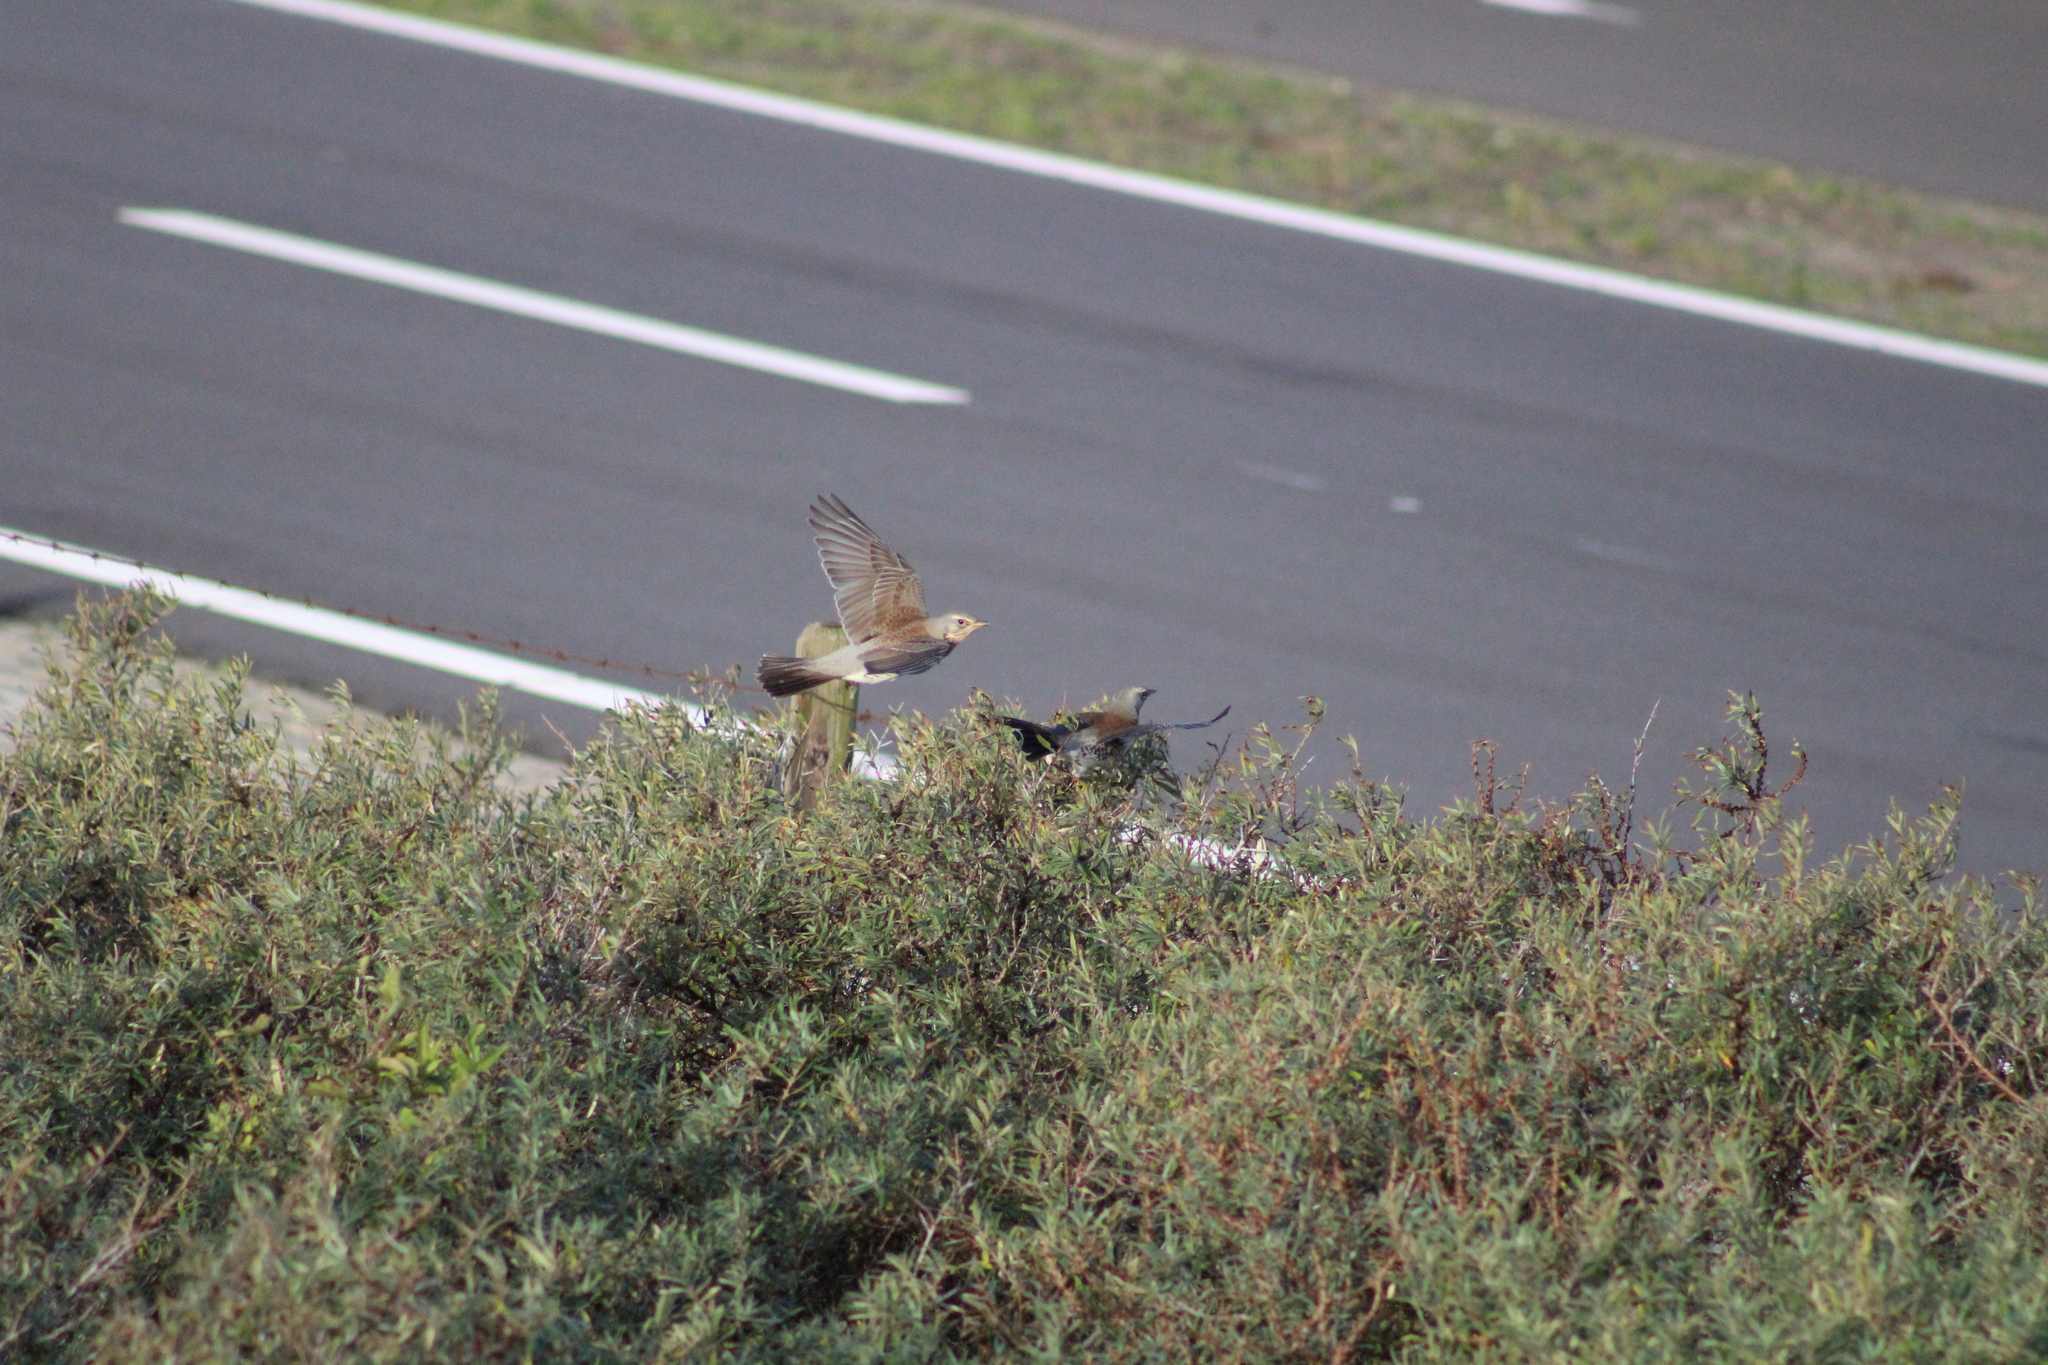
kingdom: Animalia
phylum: Chordata
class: Aves
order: Passeriformes
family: Turdidae
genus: Turdus
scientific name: Turdus pilaris
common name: Fieldfare
